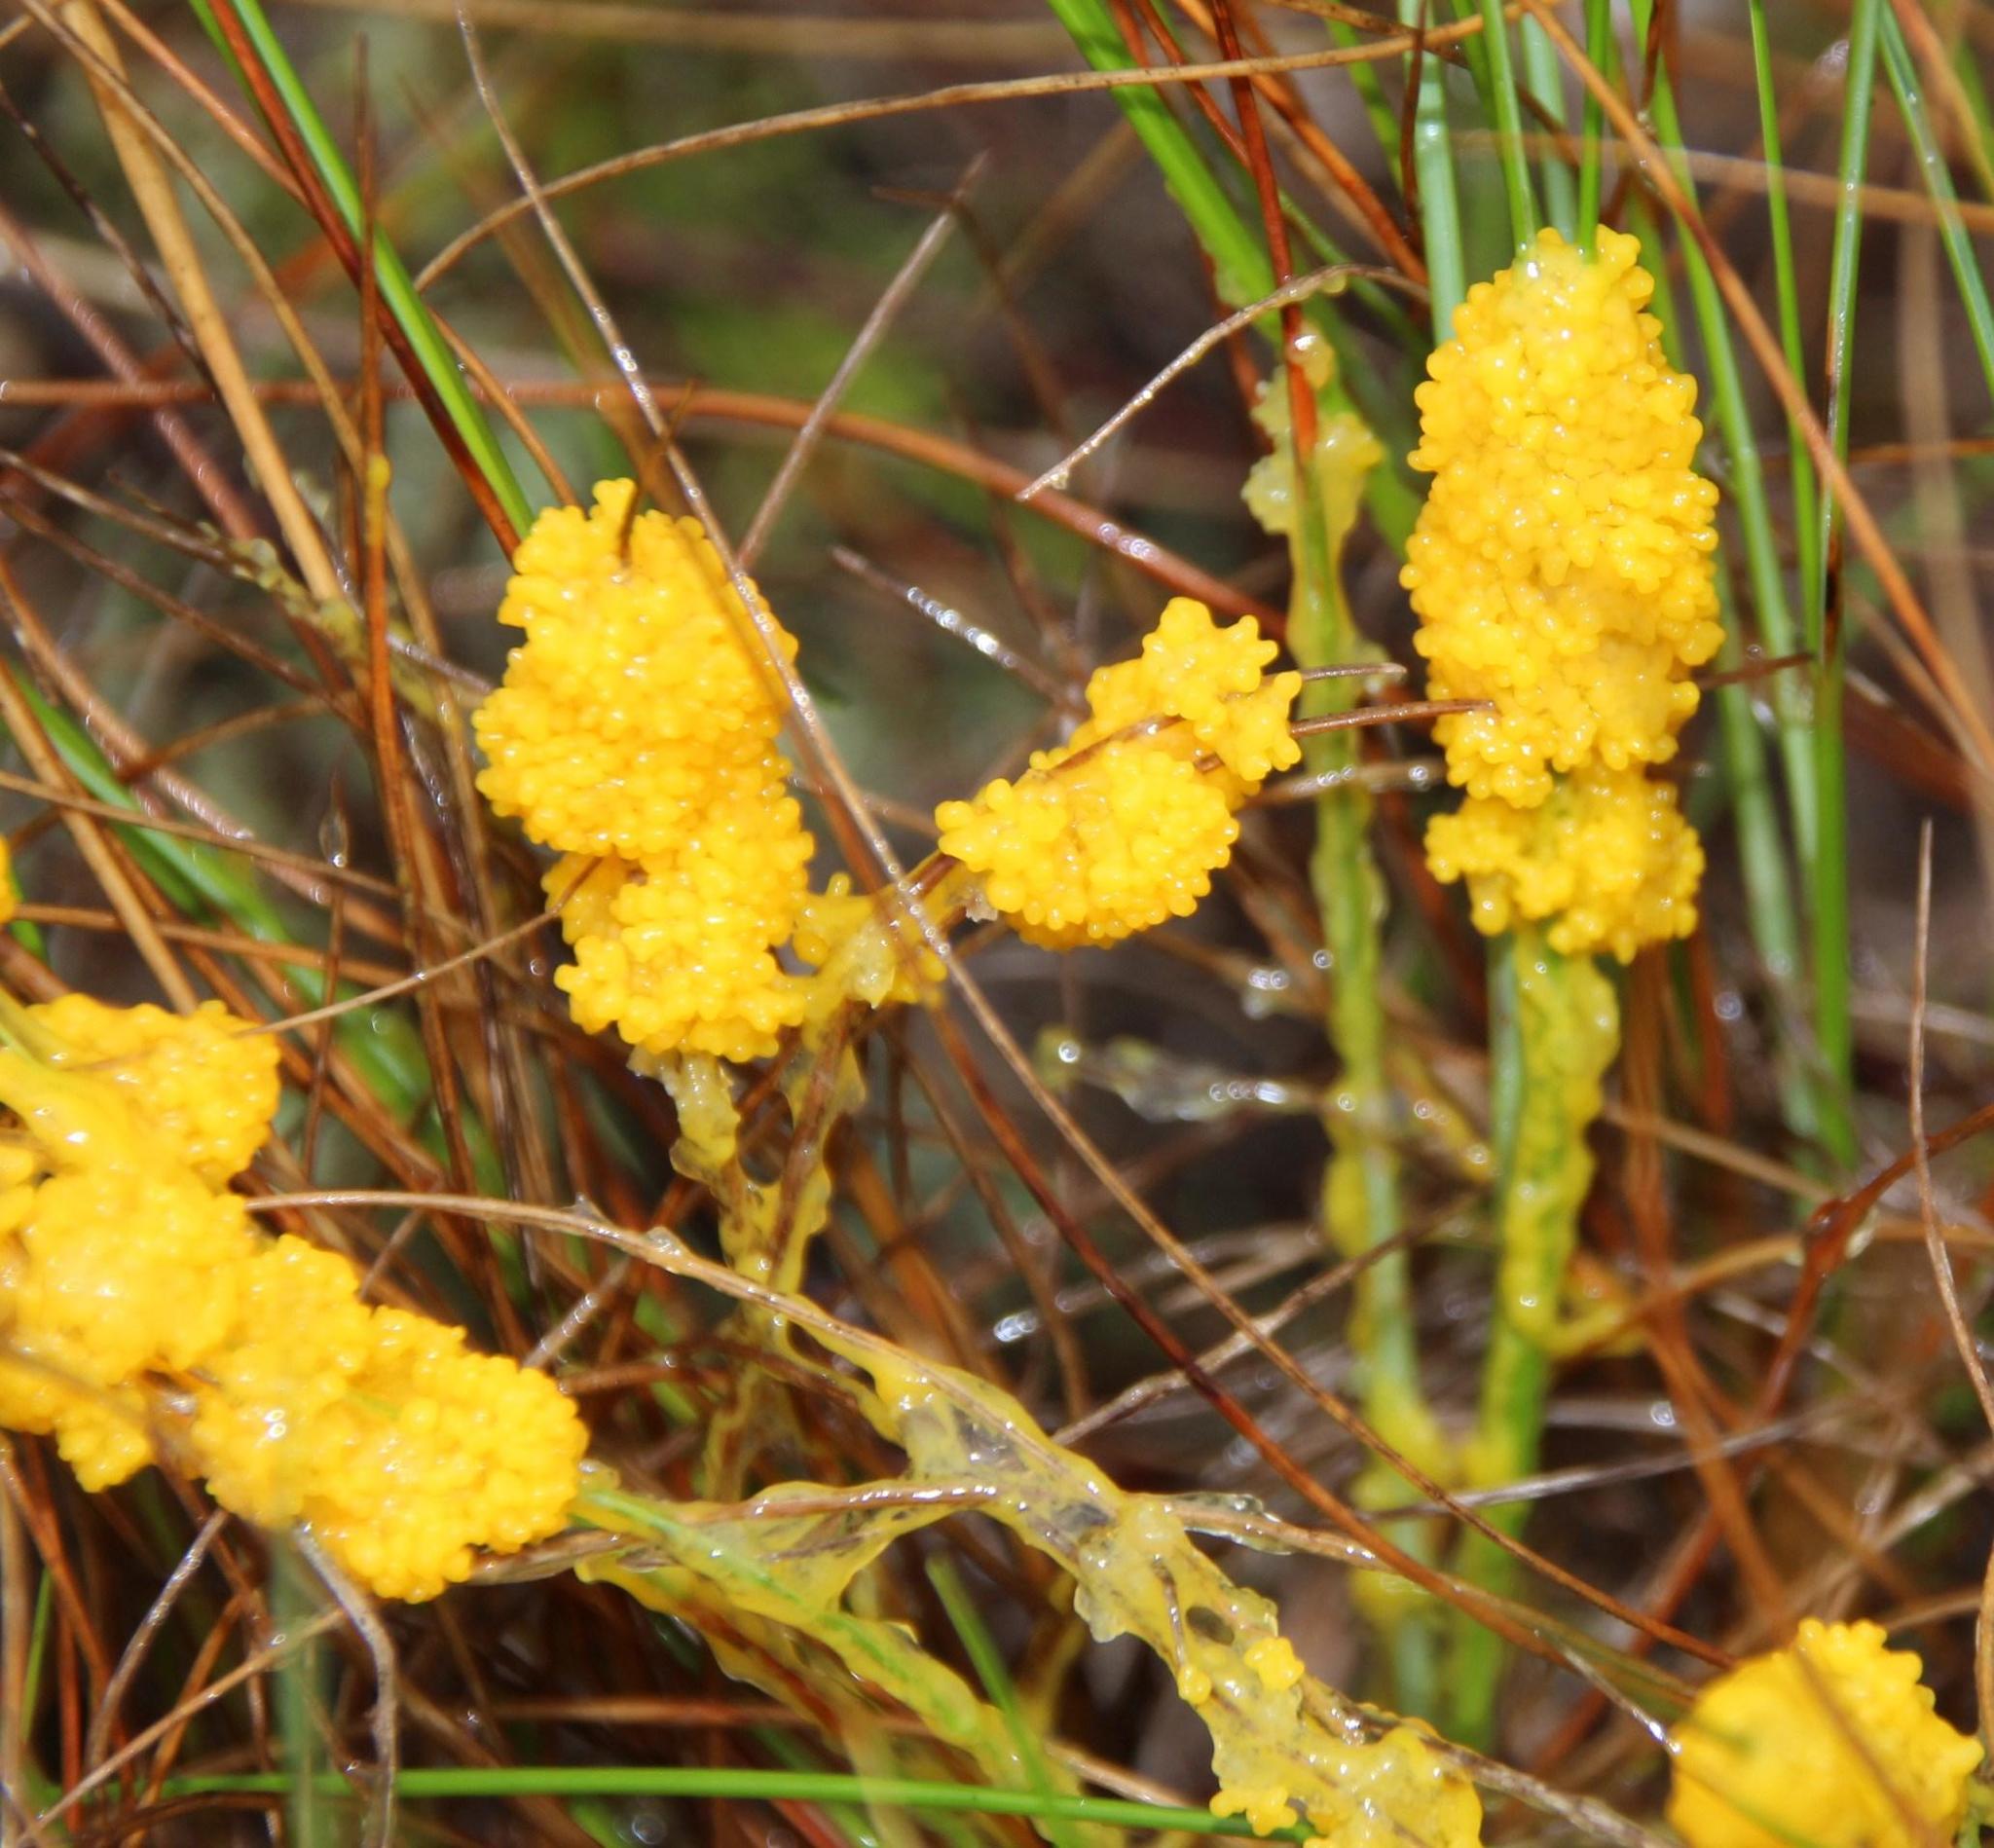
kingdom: Protozoa
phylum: Mycetozoa
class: Myxomycetes
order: Physarales
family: Physaraceae
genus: Fuligo
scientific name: Fuligo septica
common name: Dog vomit slime mold
